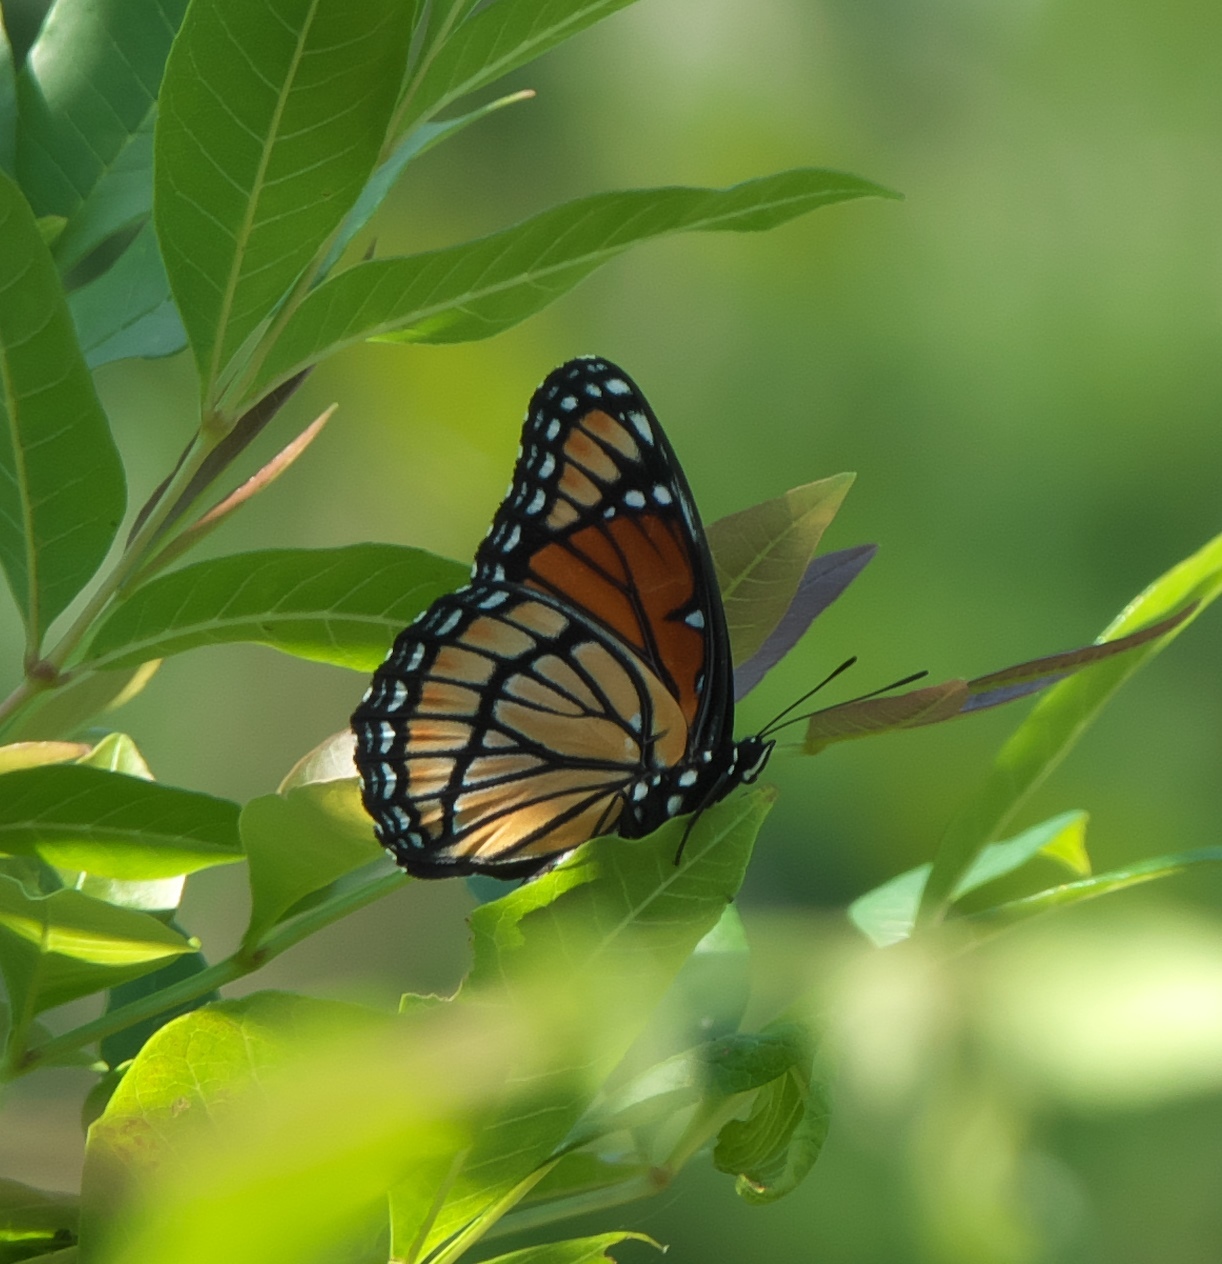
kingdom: Animalia
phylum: Arthropoda
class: Insecta
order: Lepidoptera
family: Nymphalidae
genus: Limenitis
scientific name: Limenitis archippus
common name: Viceroy
